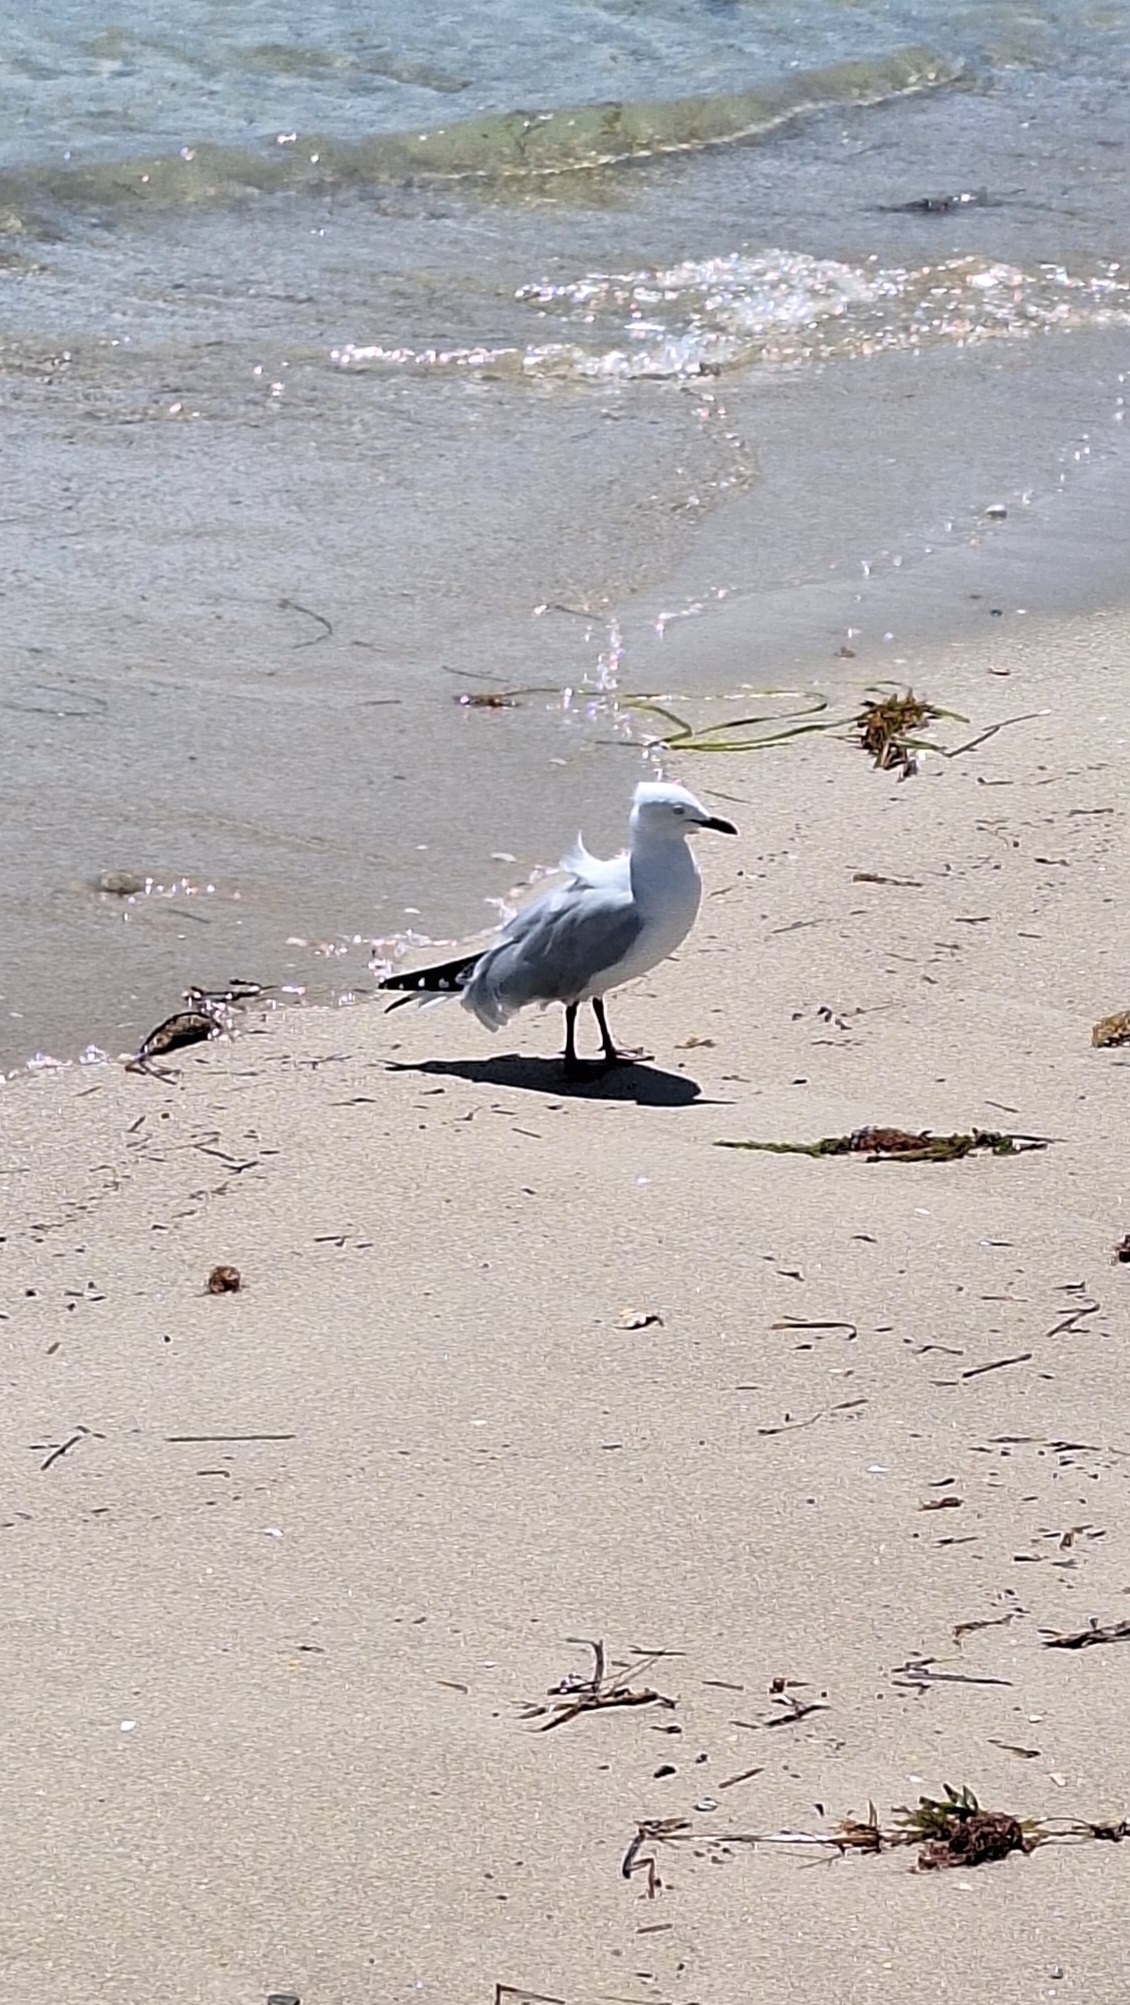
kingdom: Animalia
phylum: Chordata
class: Aves
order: Charadriiformes
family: Laridae
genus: Chroicocephalus
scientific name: Chroicocephalus novaehollandiae
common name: Silver gull
